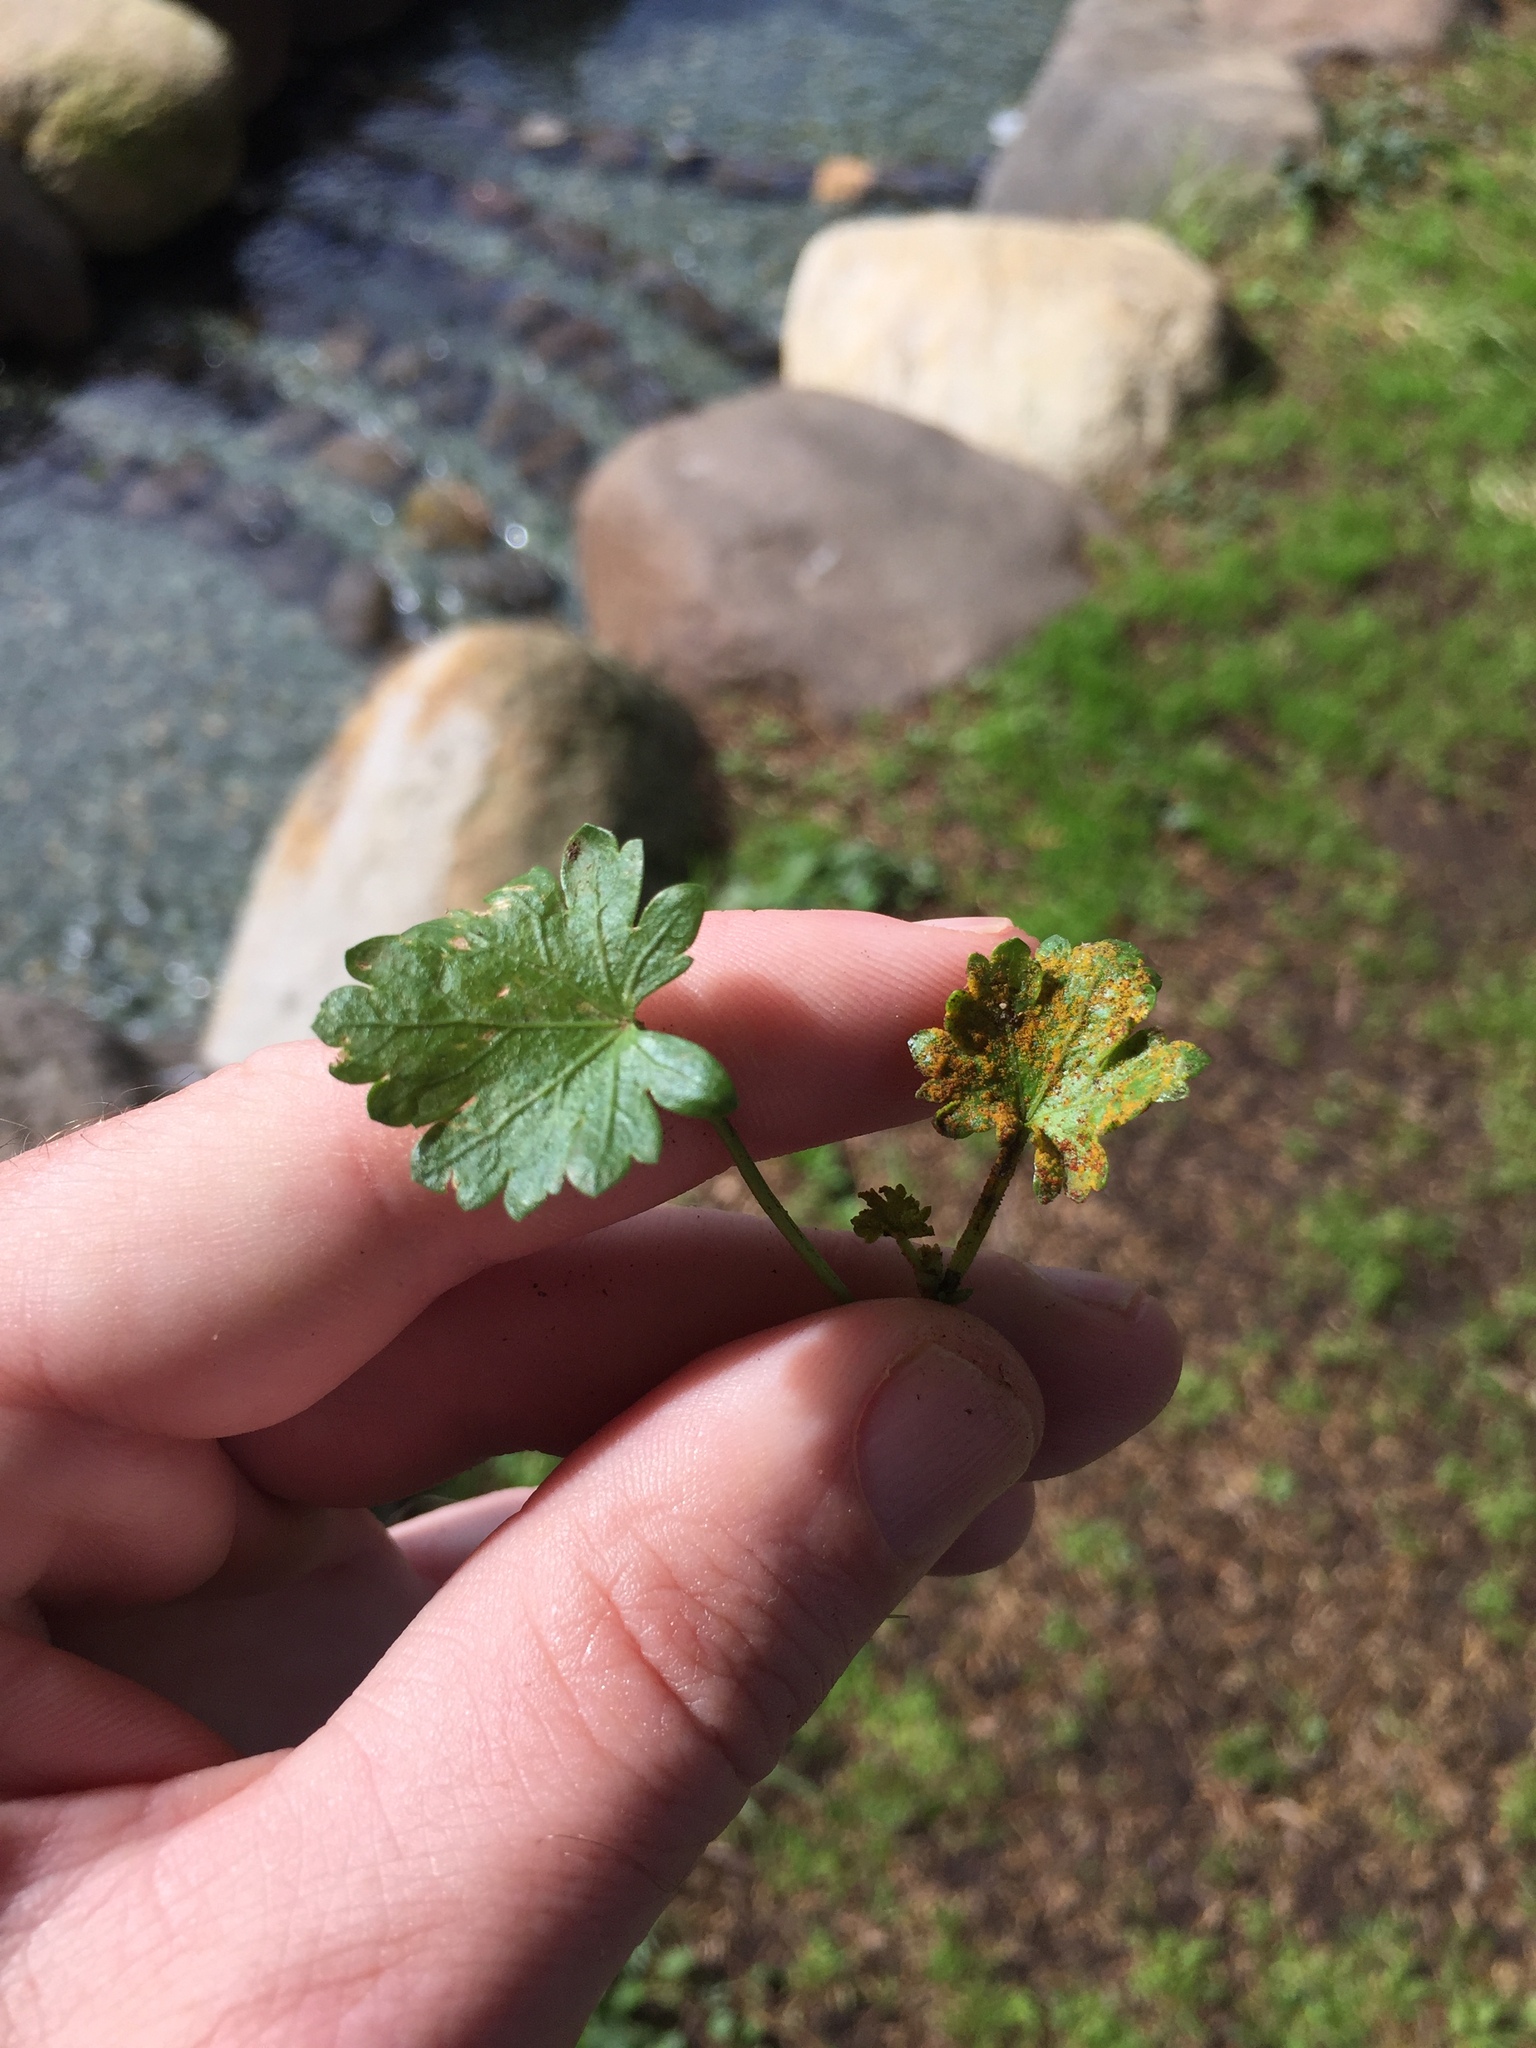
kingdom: Fungi
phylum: Chytridiomycota
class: Chytridiomycetes
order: Chytridiales
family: Synchytriaceae
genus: Synchytrium
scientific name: Synchytrium australe
